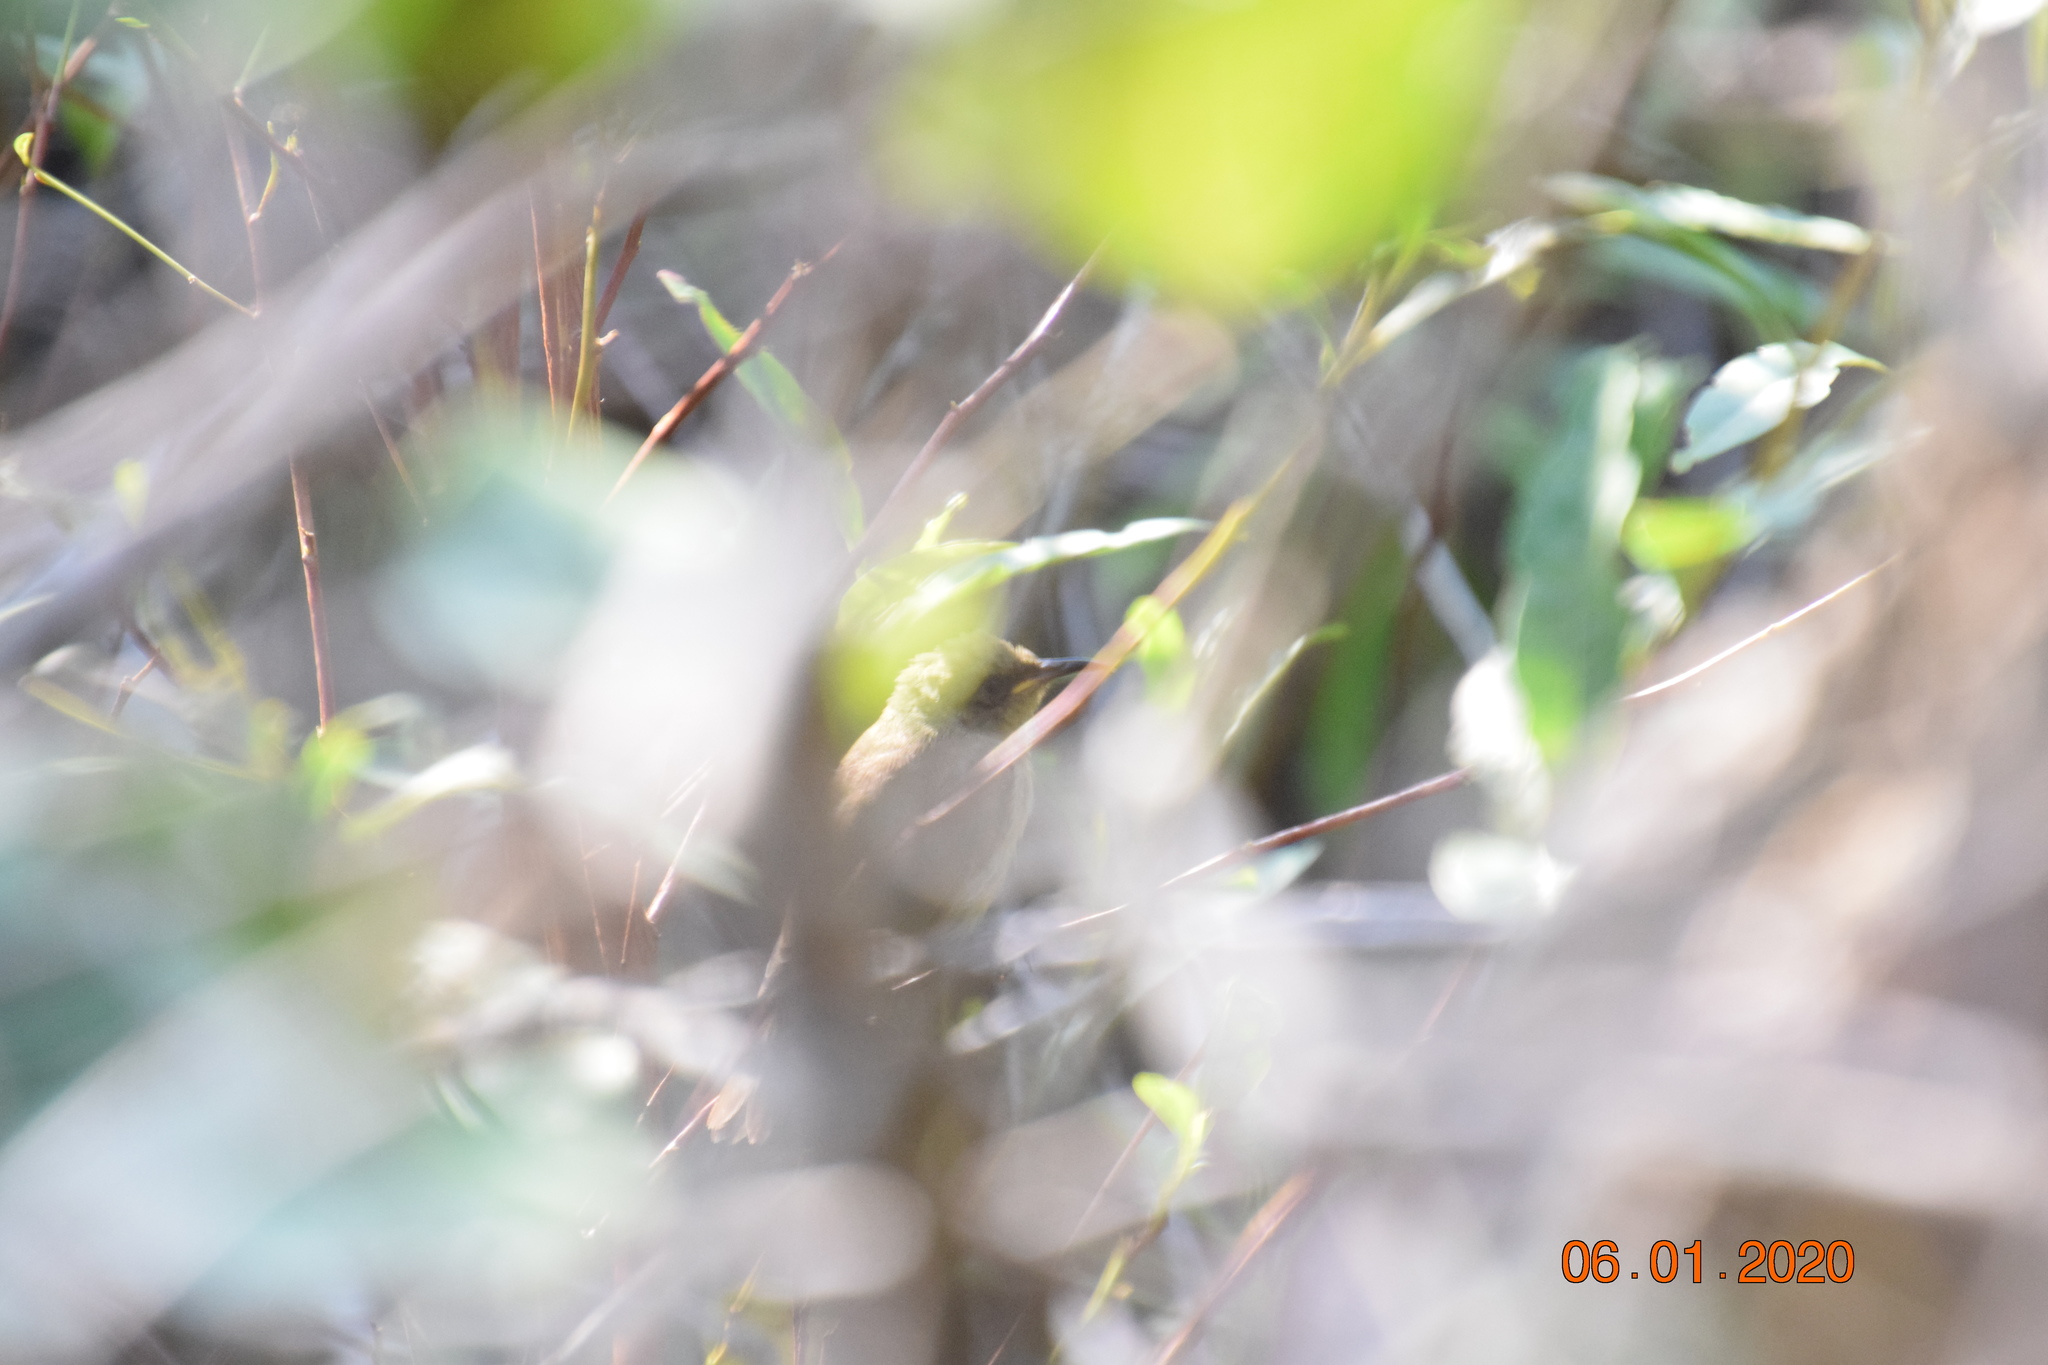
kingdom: Animalia
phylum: Chordata
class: Aves
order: Passeriformes
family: Meliphagidae
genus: Lichmera
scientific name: Lichmera indistincta
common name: Brown honeyeater
